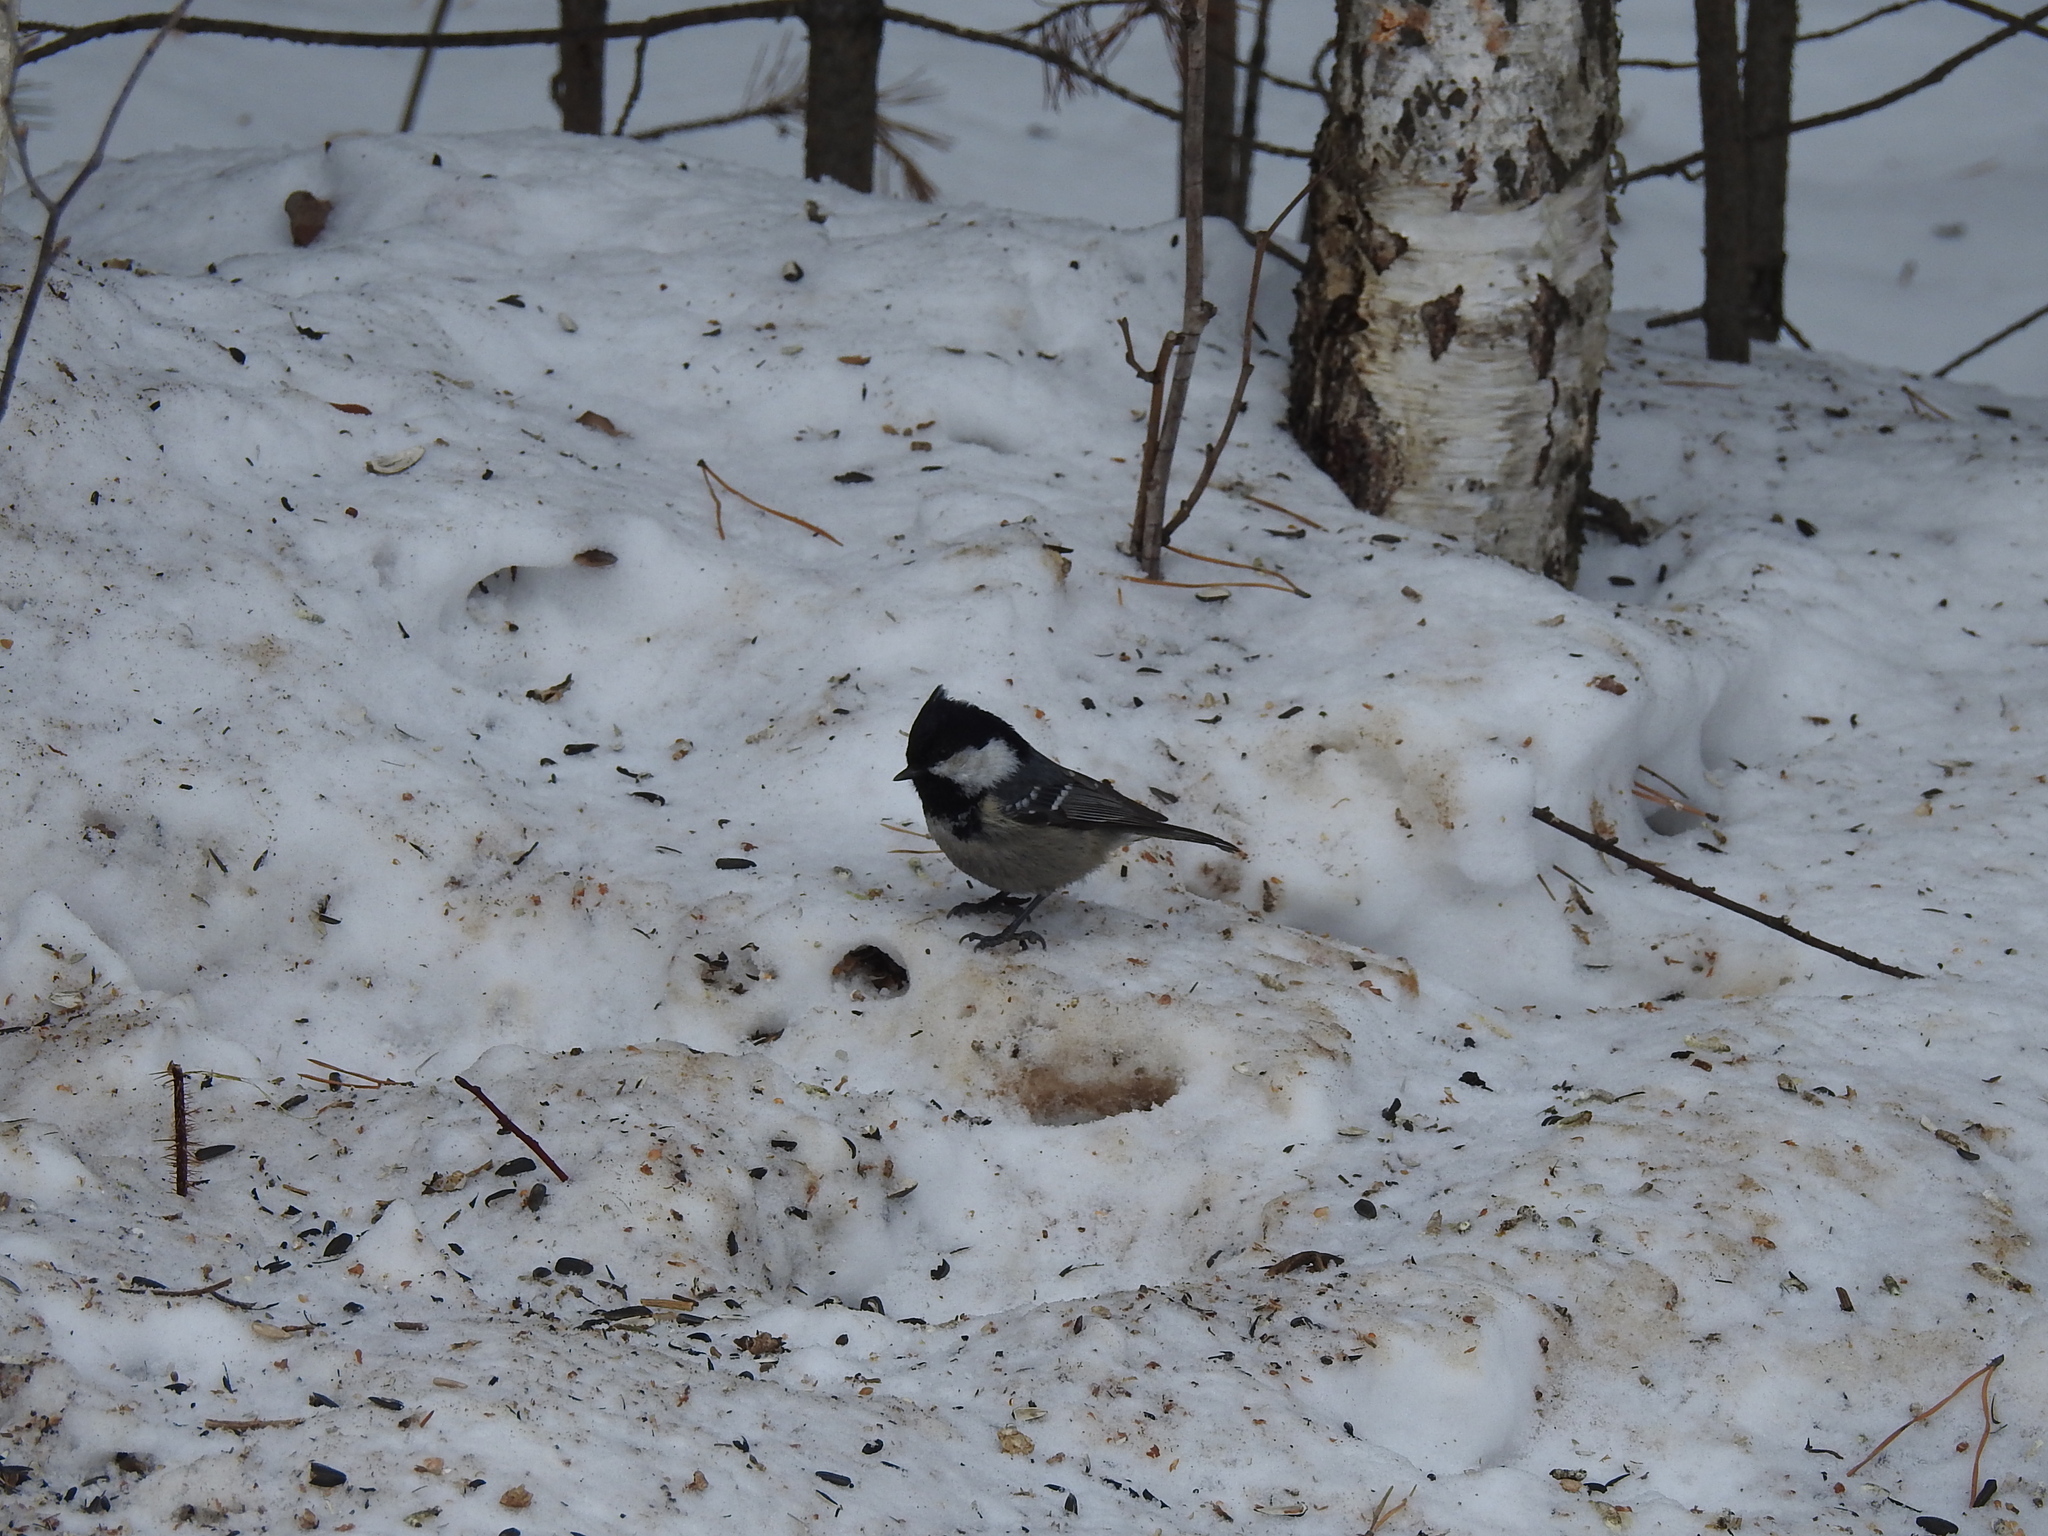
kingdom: Animalia
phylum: Chordata
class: Aves
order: Passeriformes
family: Paridae
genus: Periparus
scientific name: Periparus ater
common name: Coal tit
